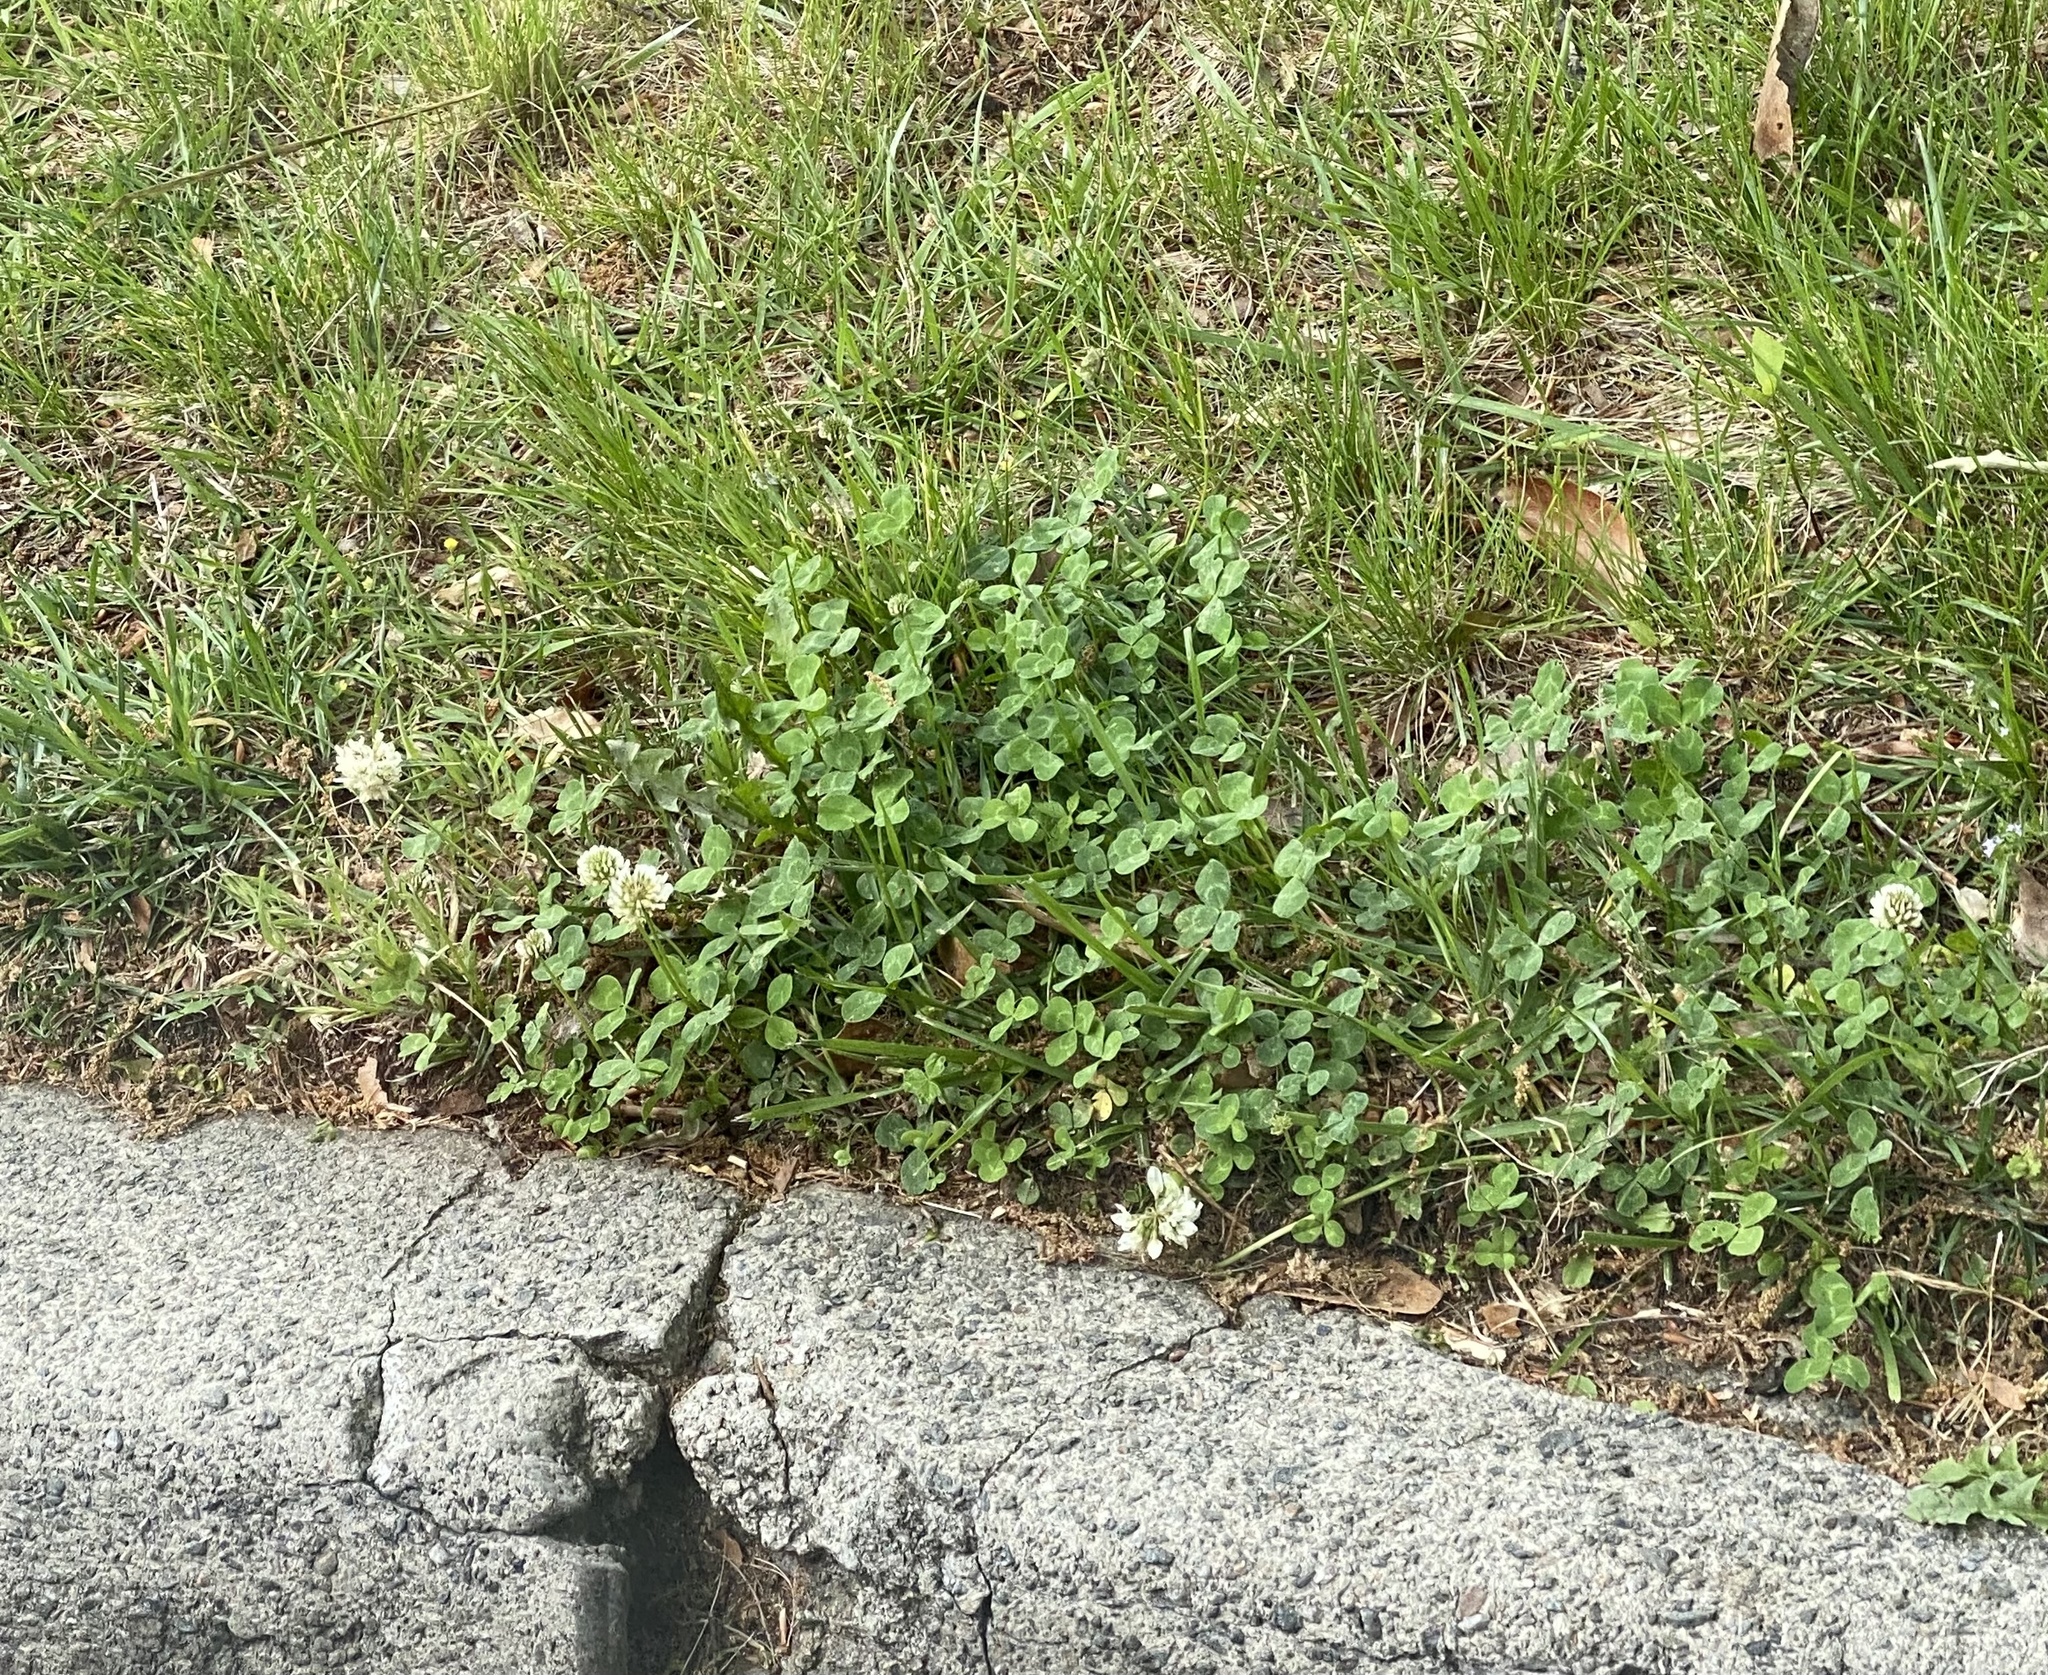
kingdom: Plantae
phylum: Tracheophyta
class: Magnoliopsida
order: Fabales
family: Fabaceae
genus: Trifolium
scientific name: Trifolium repens
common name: White clover
